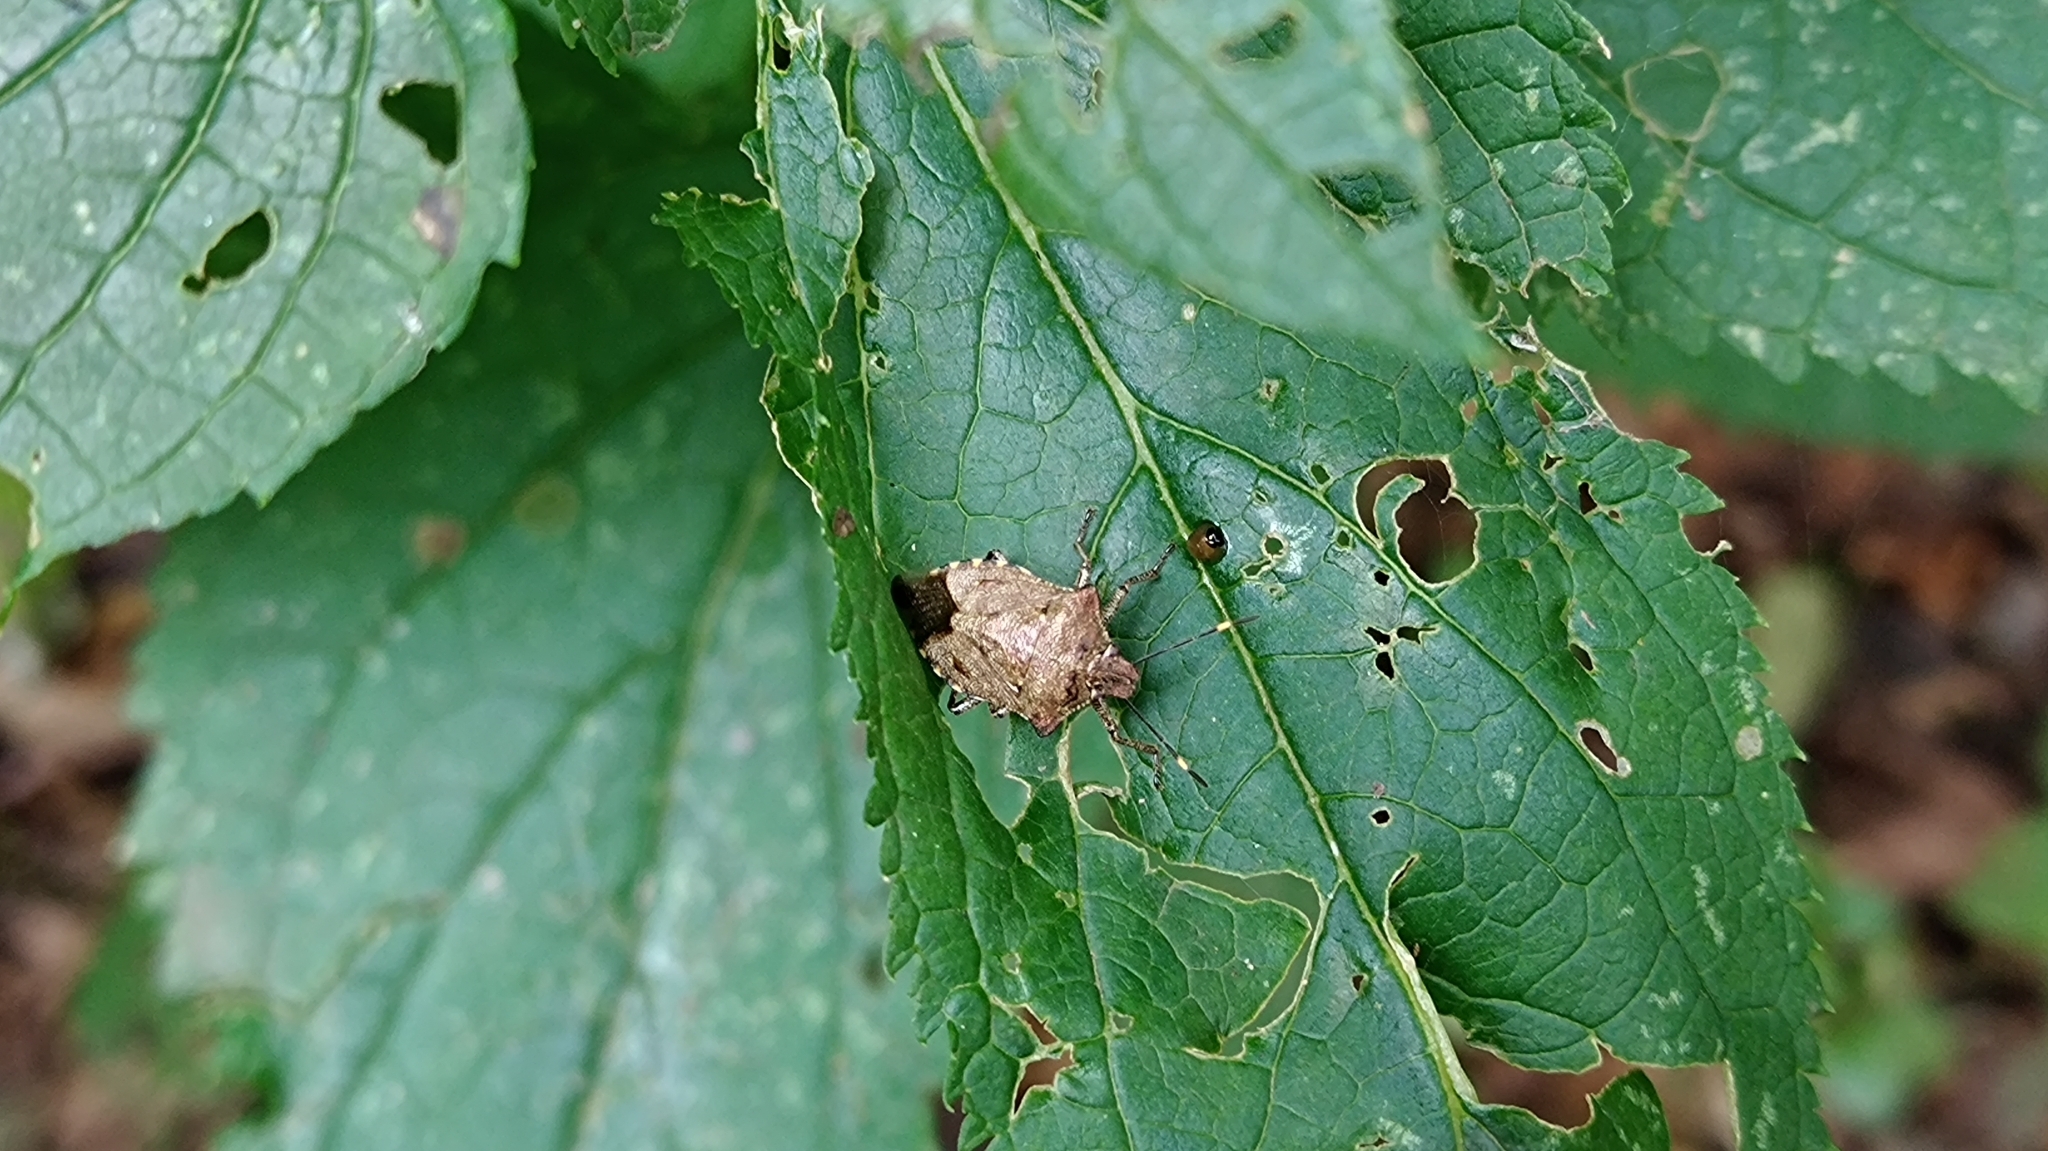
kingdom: Animalia
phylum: Arthropoda
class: Insecta
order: Hemiptera
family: Pentatomidae
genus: Troilus
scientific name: Troilus luridus
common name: Bronze shieldbug
